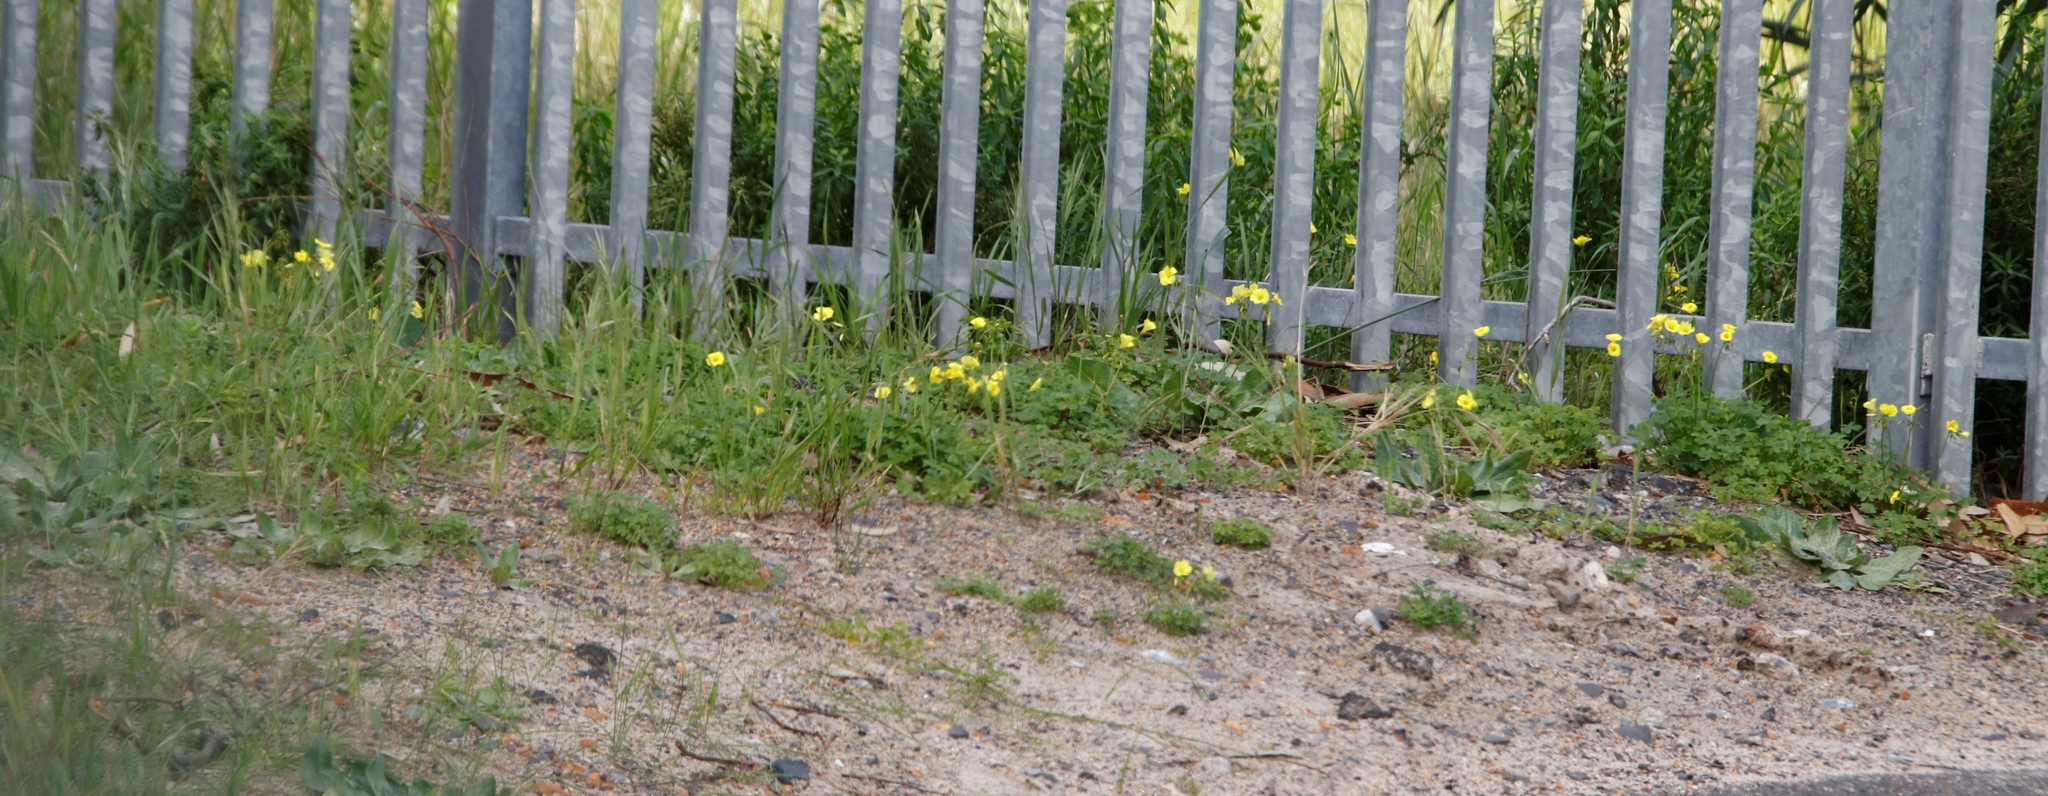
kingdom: Plantae
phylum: Tracheophyta
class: Magnoliopsida
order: Oxalidales
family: Oxalidaceae
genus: Oxalis
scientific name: Oxalis pes-caprae
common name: Bermuda-buttercup
